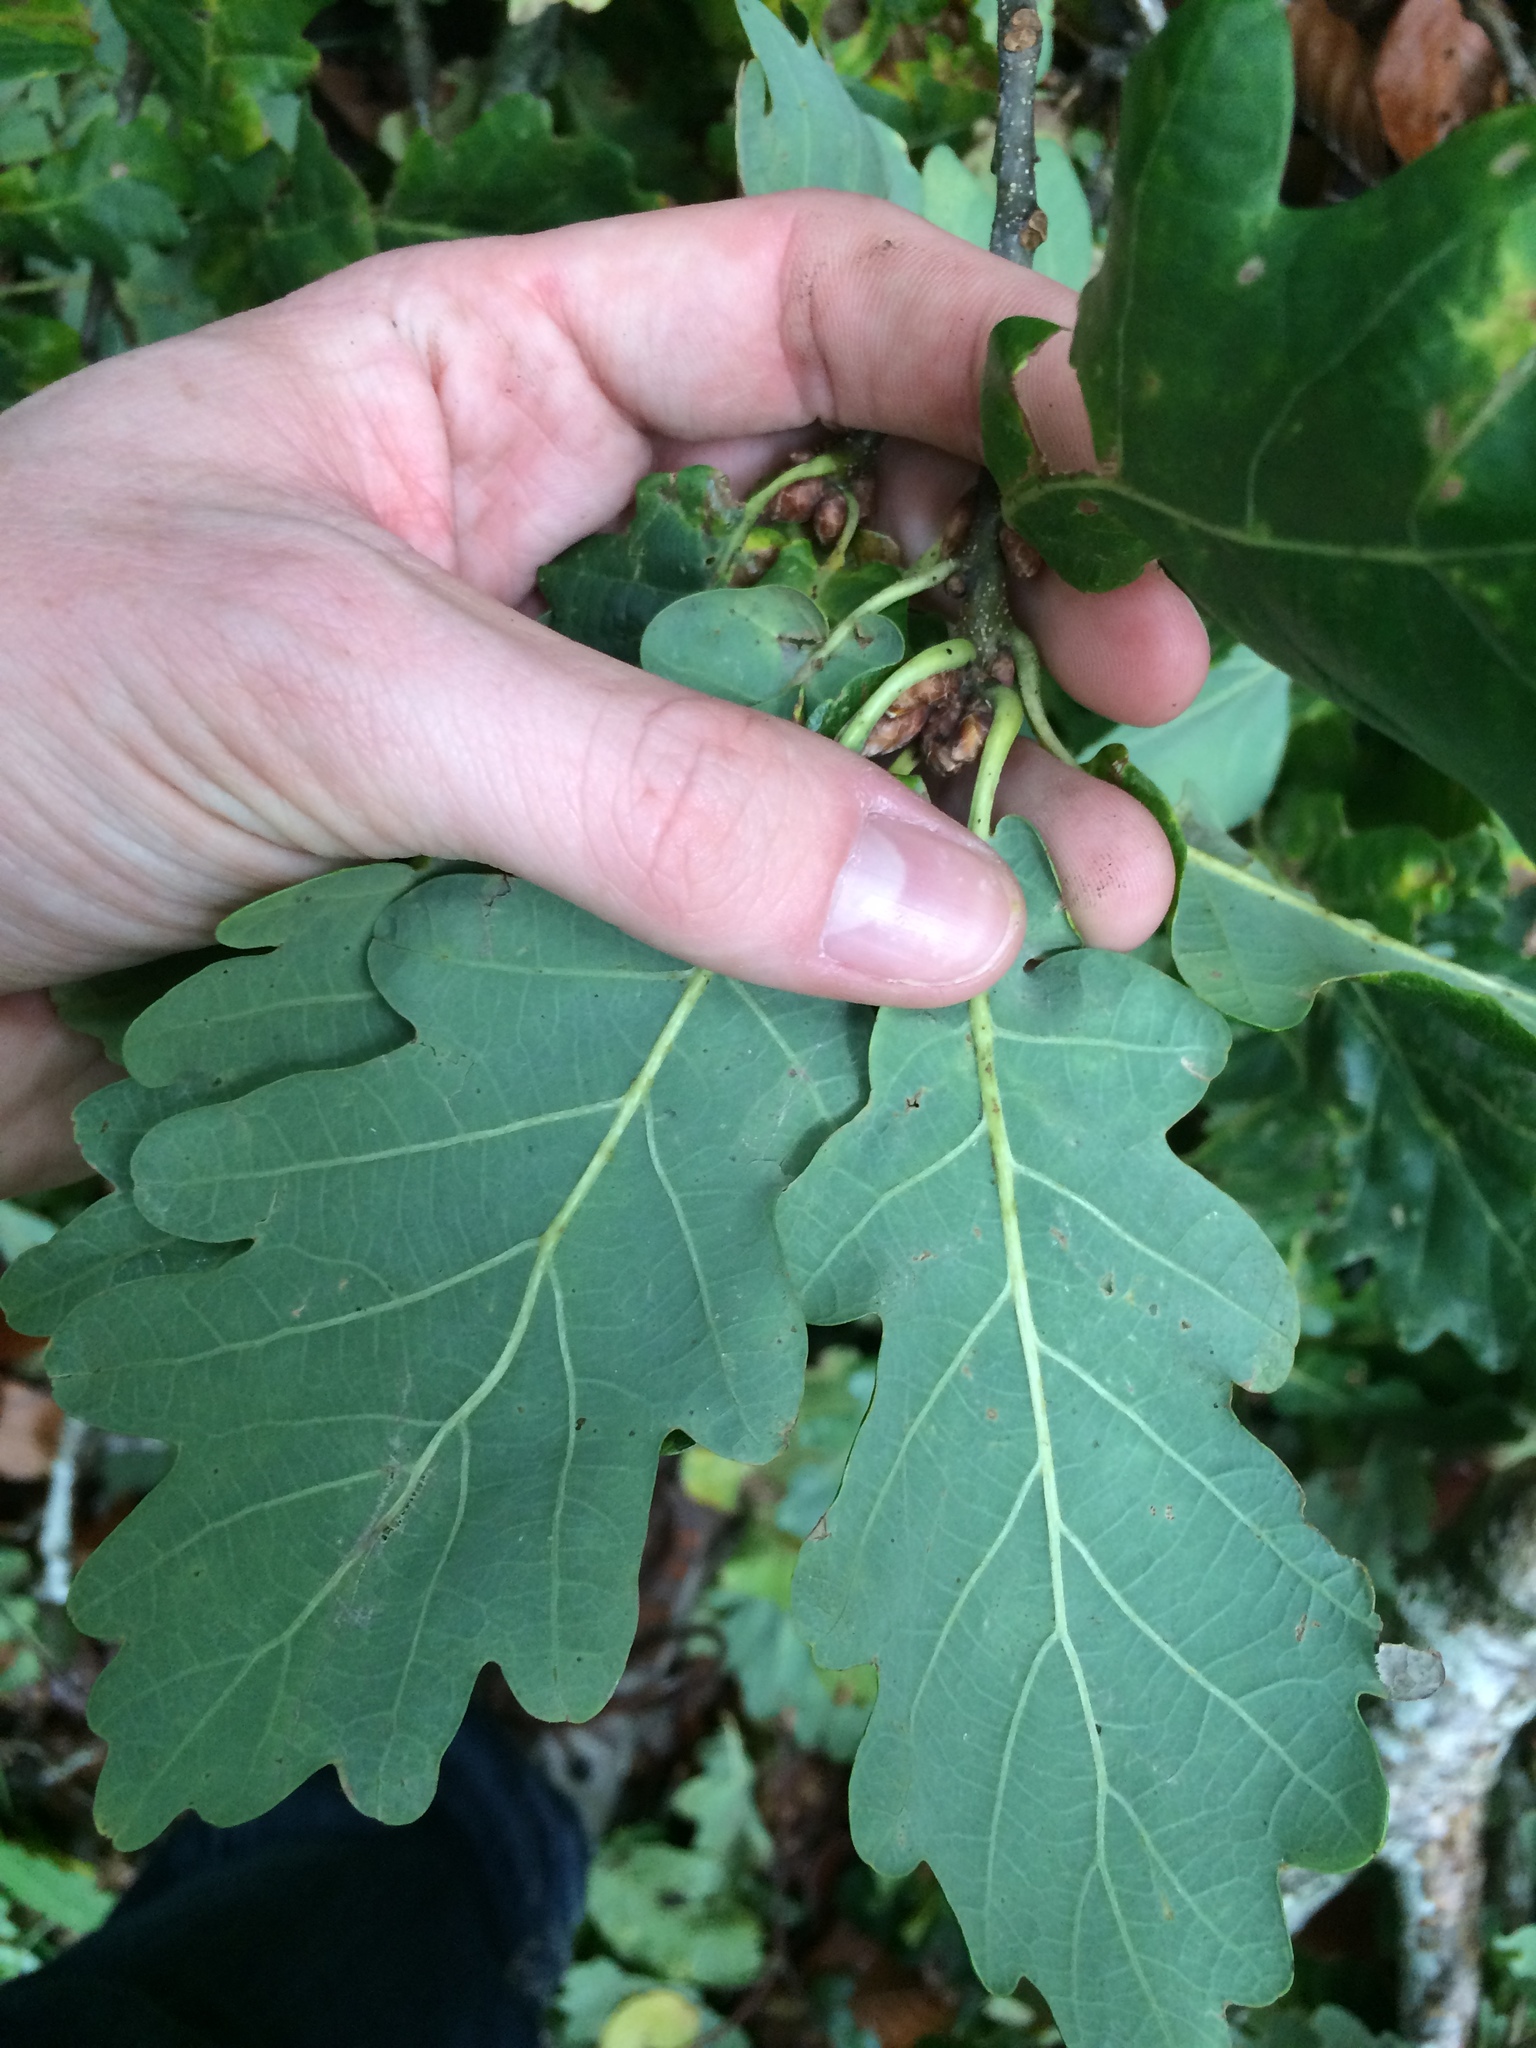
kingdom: Plantae
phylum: Tracheophyta
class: Magnoliopsida
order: Fagales
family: Fagaceae
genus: Quercus
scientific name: Quercus robur
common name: Pedunculate oak
